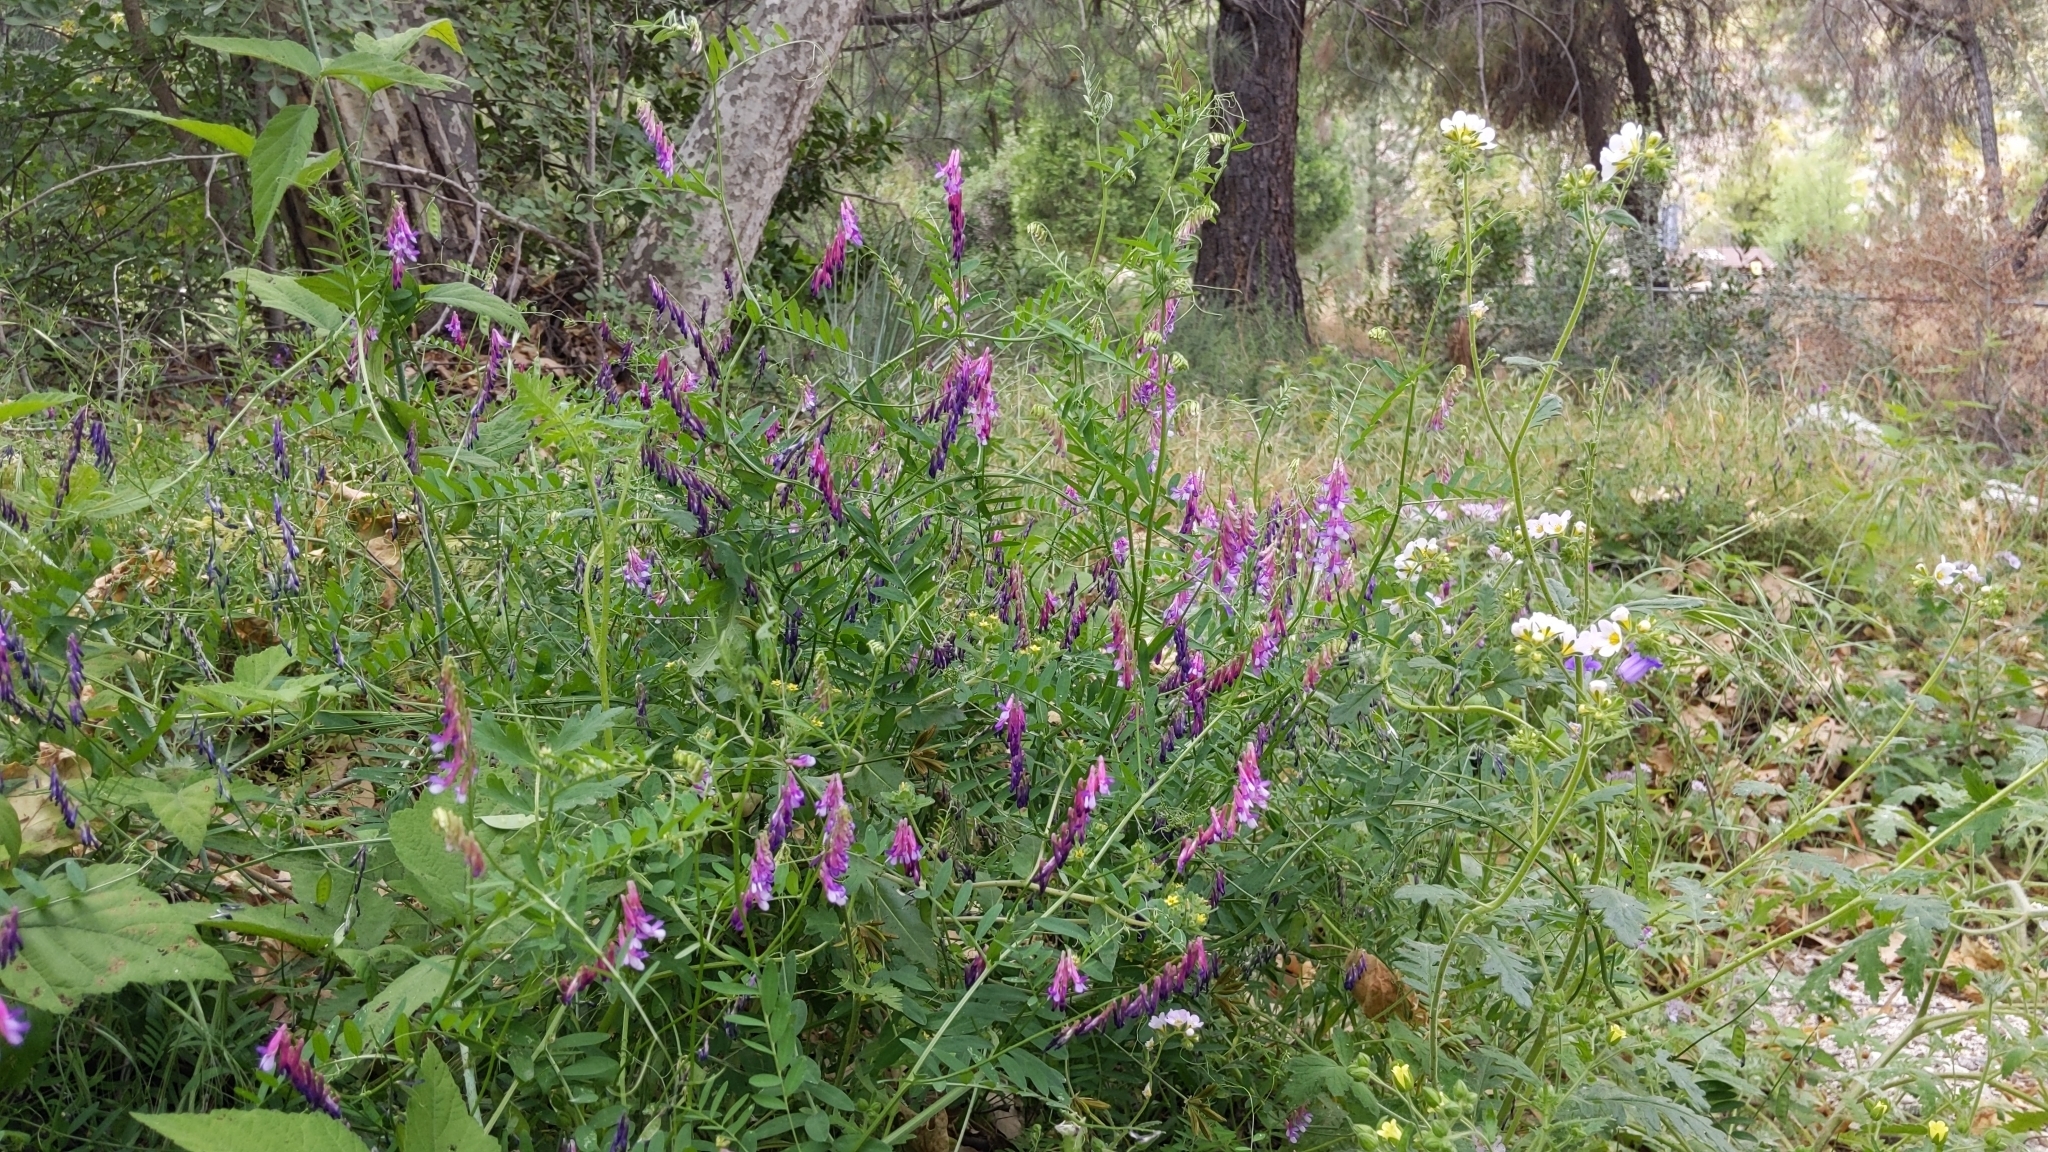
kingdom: Plantae
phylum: Tracheophyta
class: Magnoliopsida
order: Fabales
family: Fabaceae
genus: Vicia
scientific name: Vicia villosa
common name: Fodder vetch
